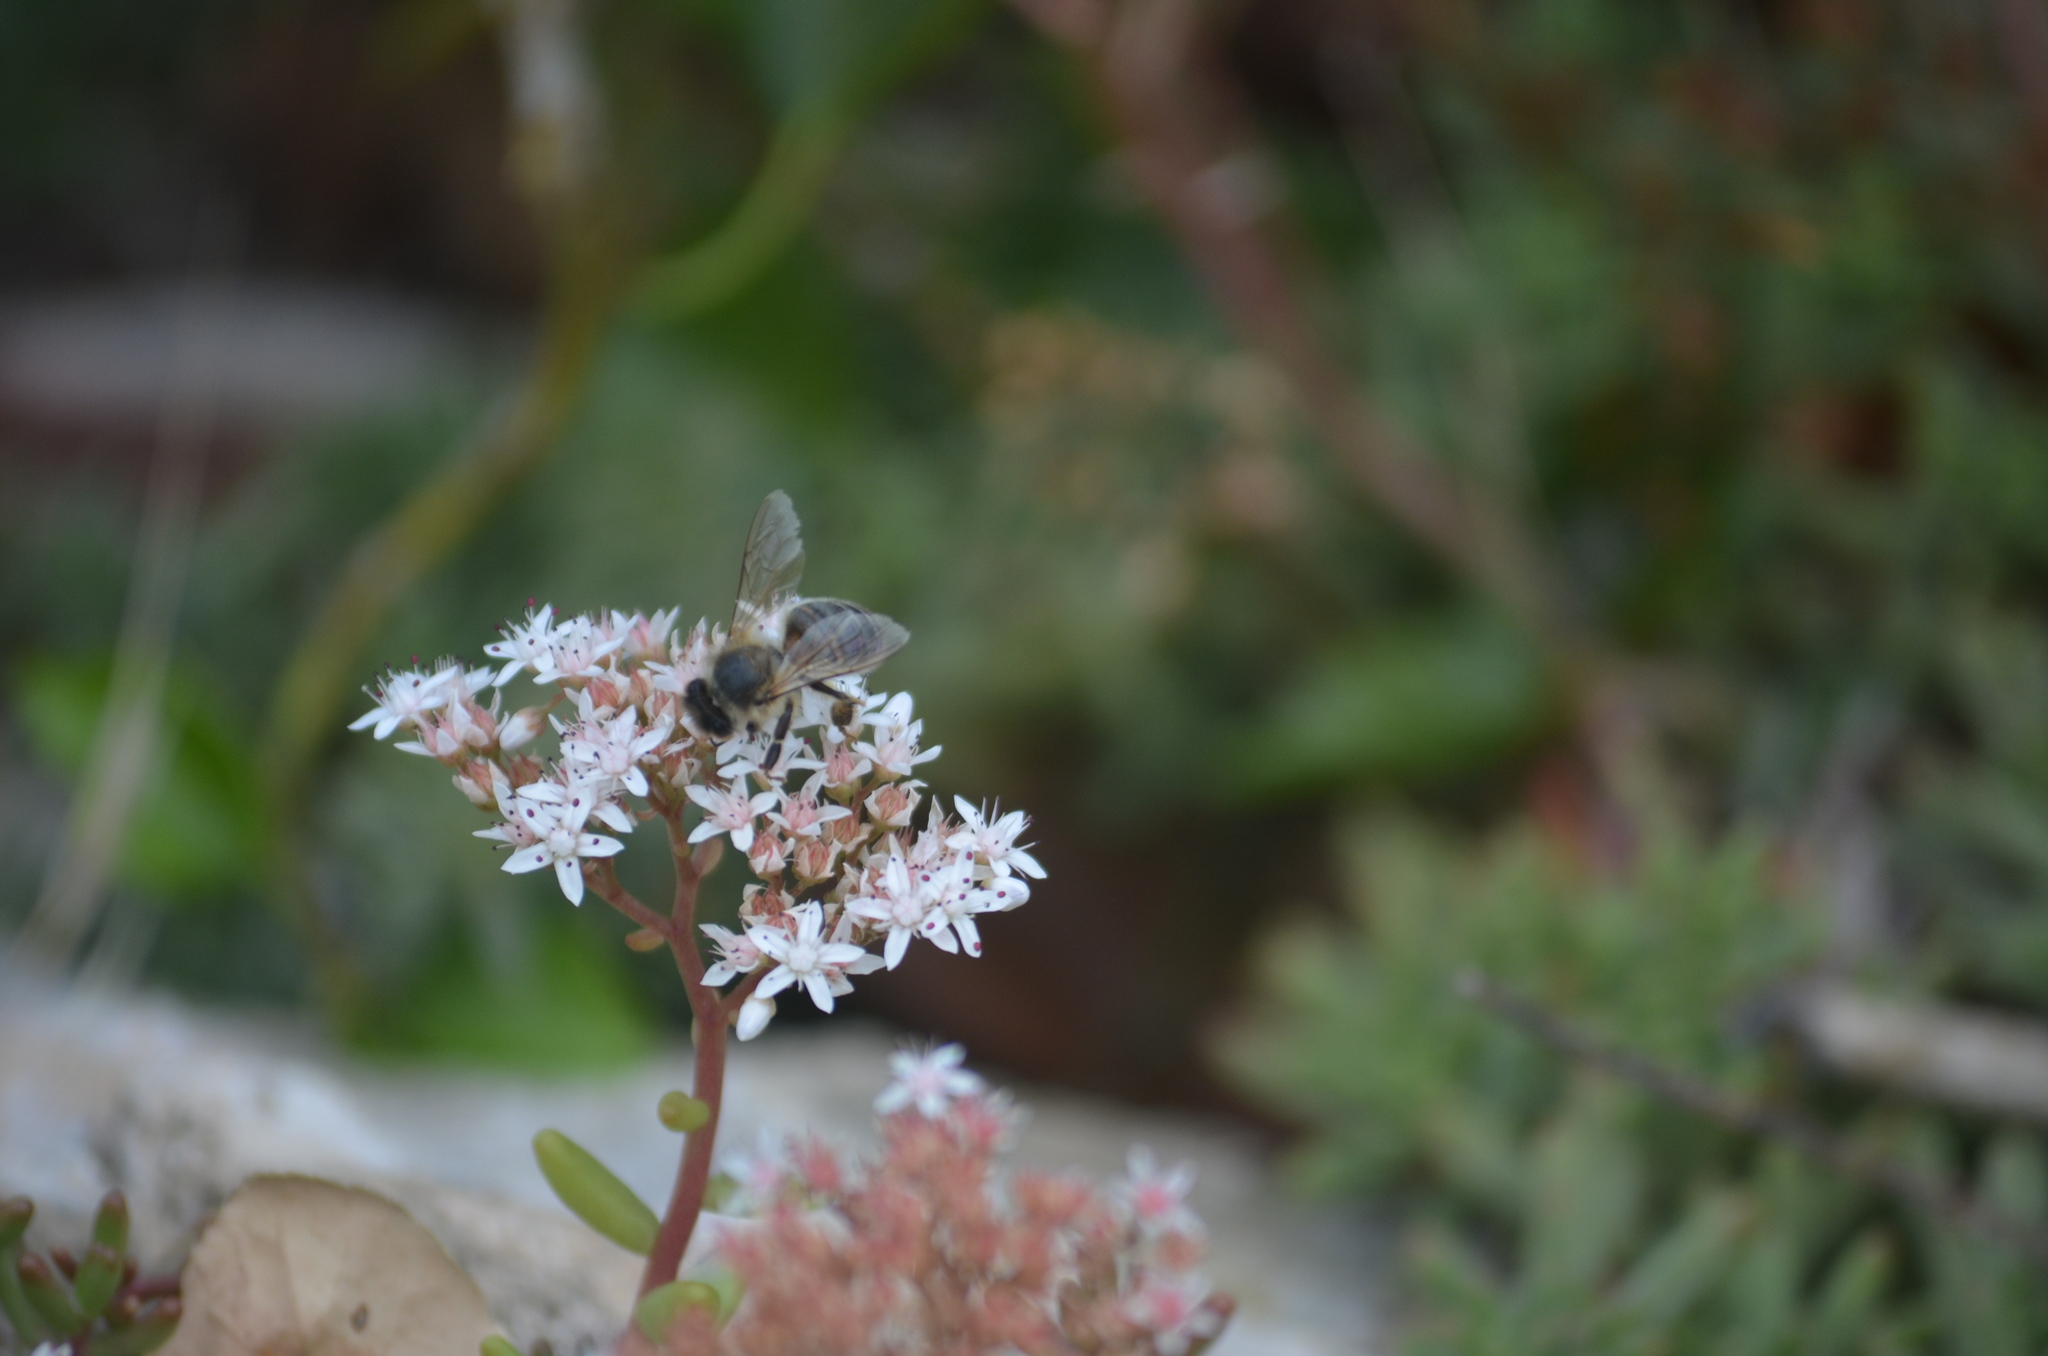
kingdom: Animalia
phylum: Arthropoda
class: Insecta
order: Hymenoptera
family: Apidae
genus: Apis
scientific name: Apis mellifera
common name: Honey bee
